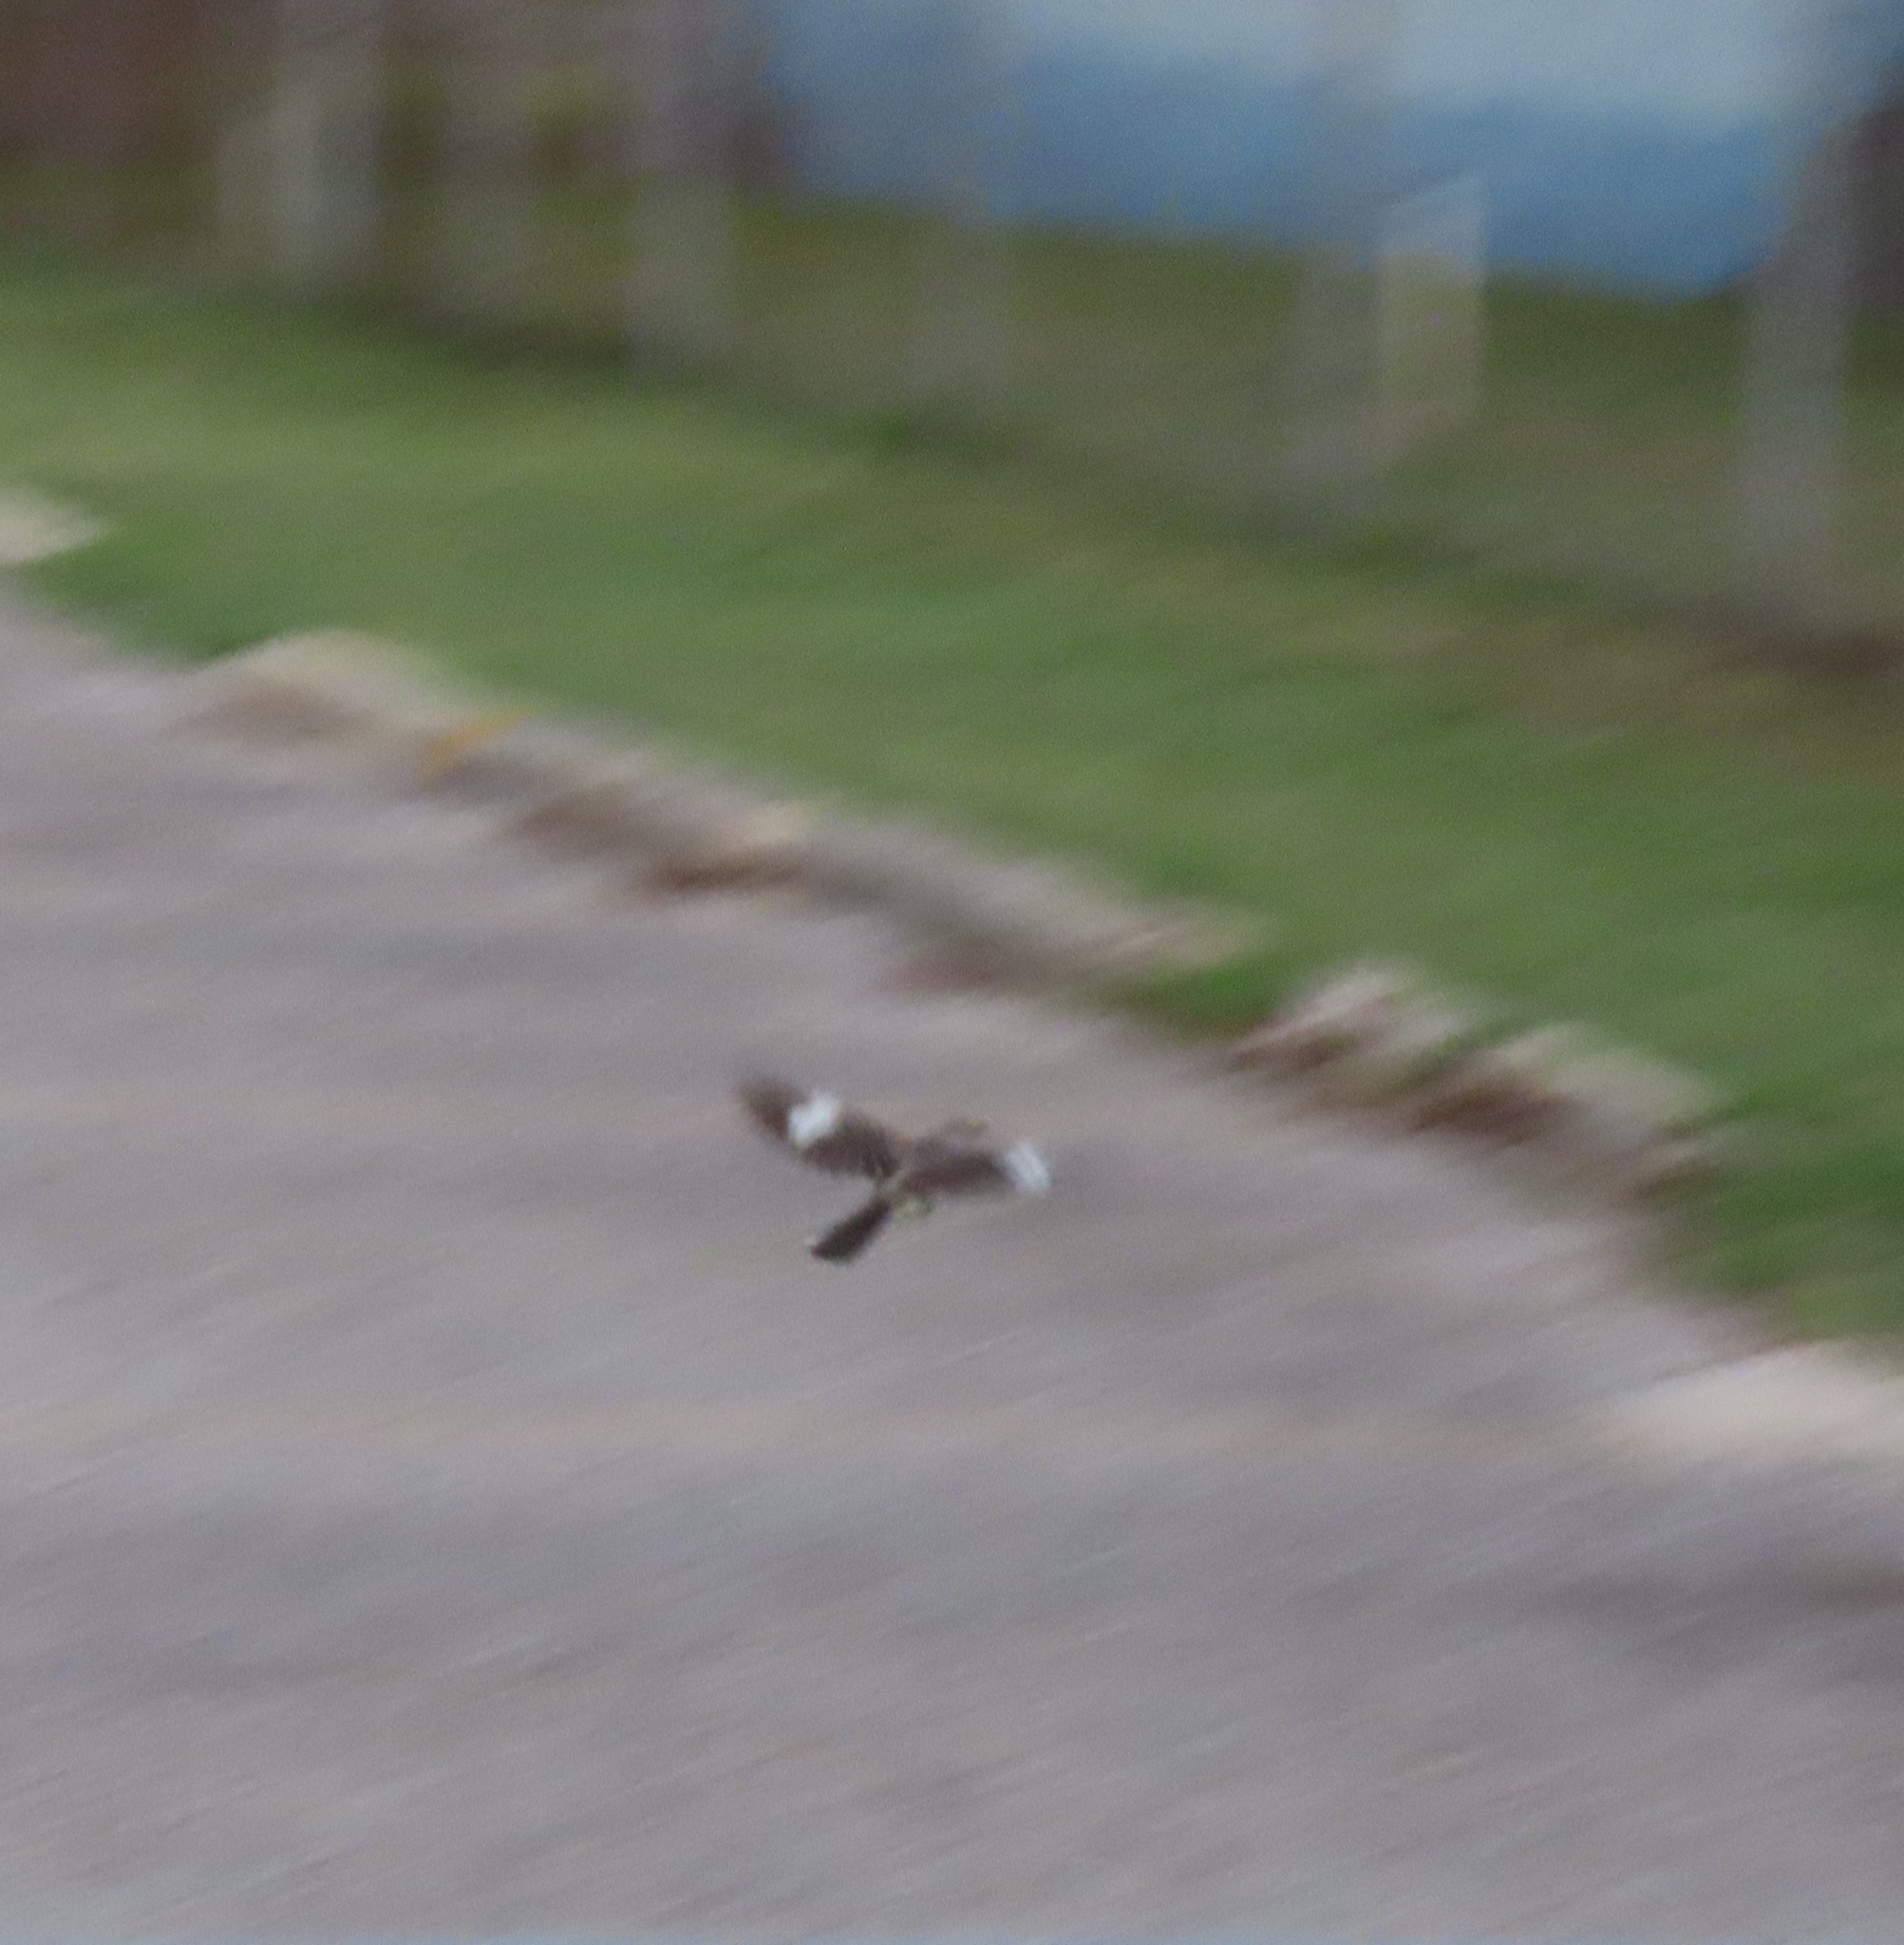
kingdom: Animalia
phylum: Chordata
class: Aves
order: Passeriformes
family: Mimidae
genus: Mimus
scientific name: Mimus polyglottos
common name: Northern mockingbird
